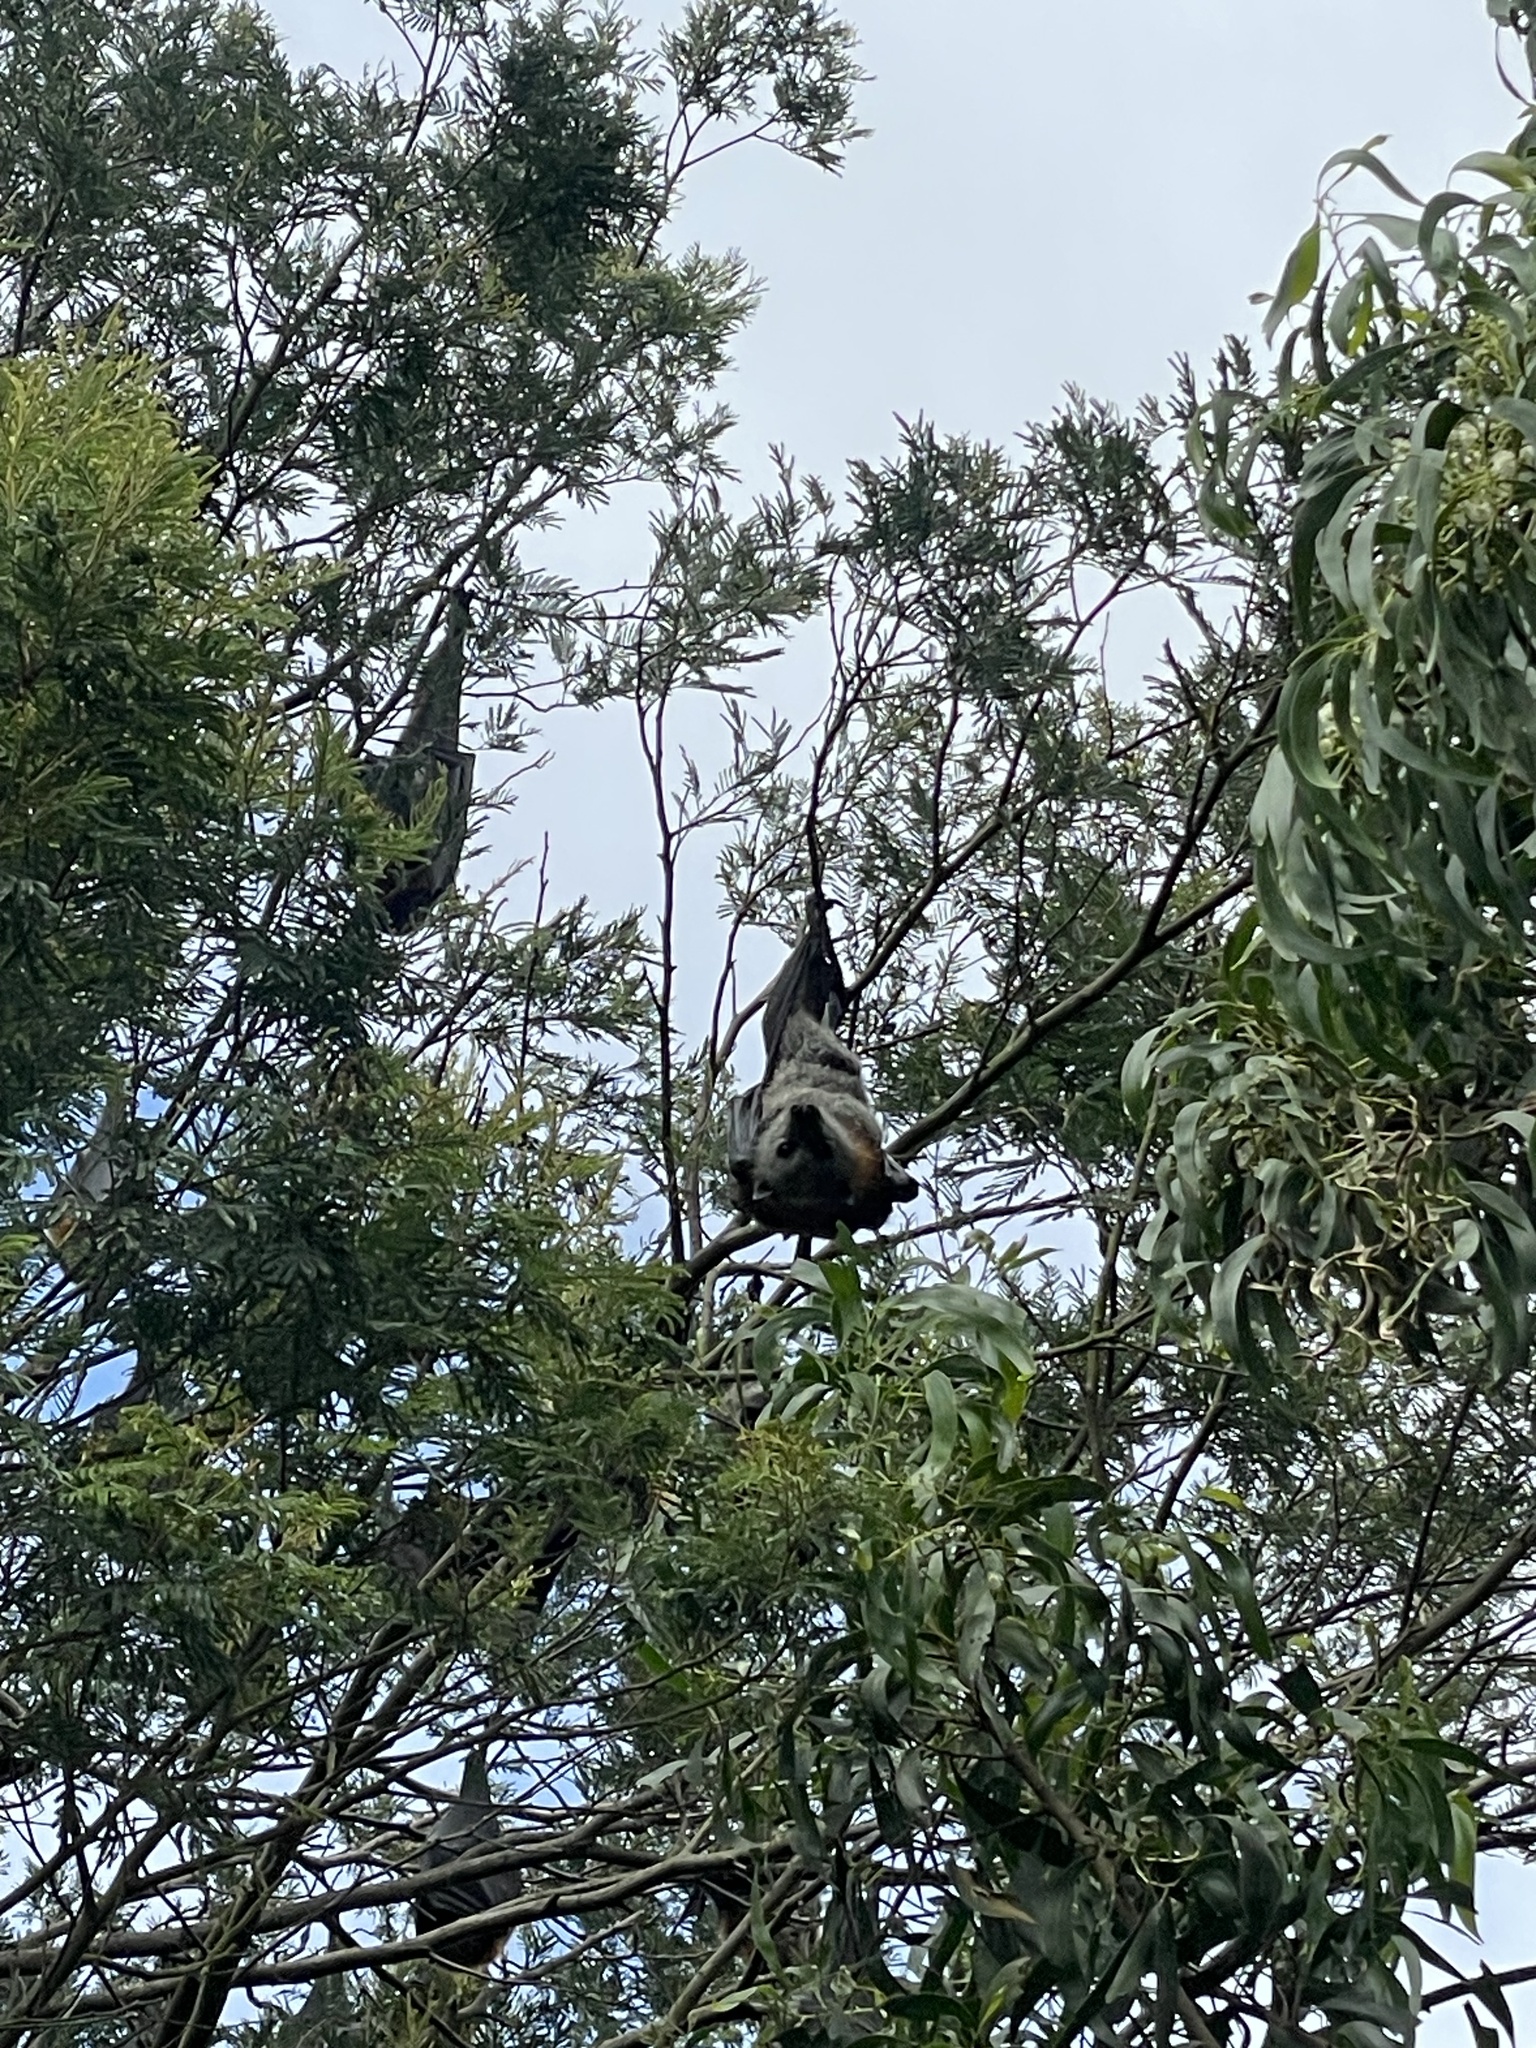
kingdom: Animalia
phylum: Chordata
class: Mammalia
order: Chiroptera
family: Pteropodidae
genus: Pteropus
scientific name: Pteropus poliocephalus
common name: Gray-headed flying fox
